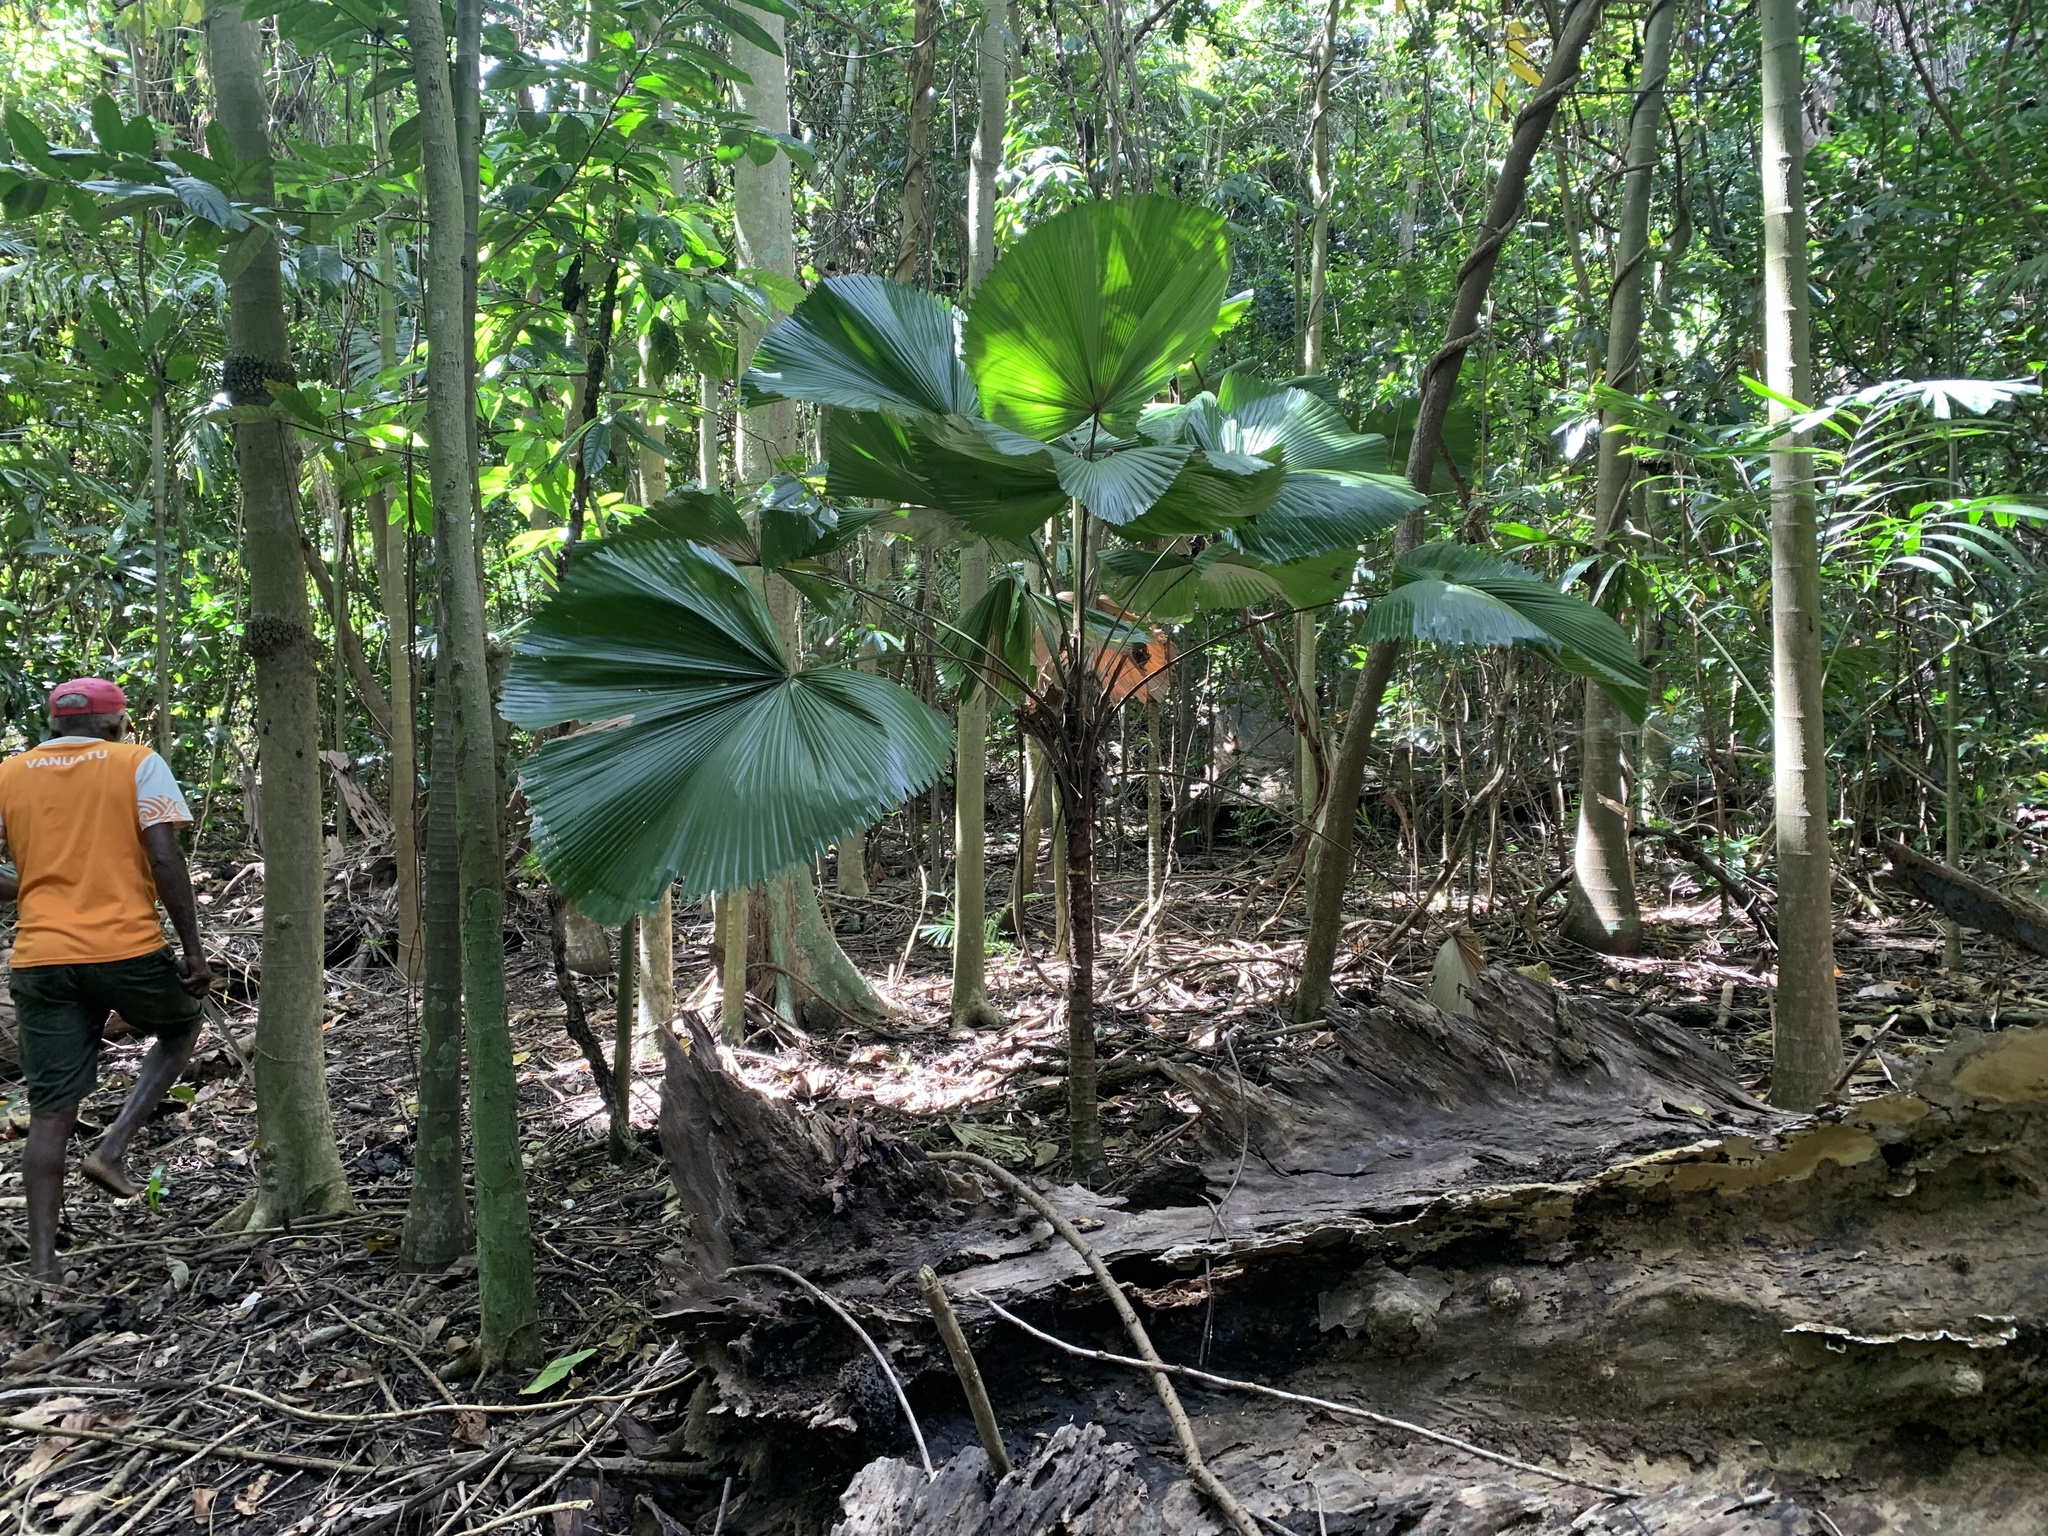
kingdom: Plantae
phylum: Tracheophyta
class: Liliopsida
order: Arecales
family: Arecaceae
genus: Licuala
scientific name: Licuala grandis
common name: Ruffled fan palm
